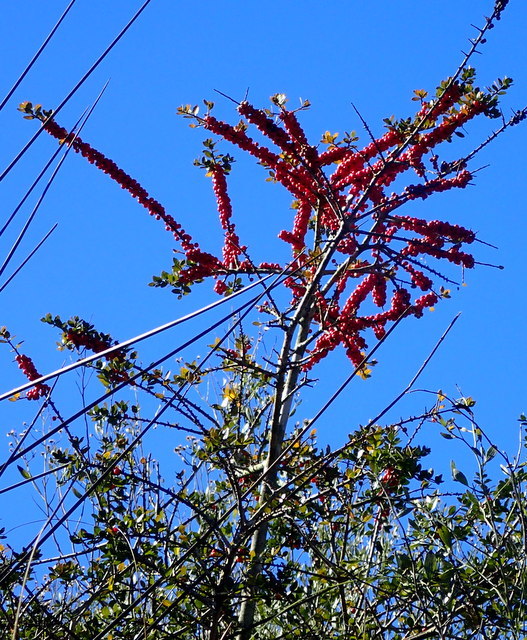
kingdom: Plantae
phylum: Tracheophyta
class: Magnoliopsida
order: Aquifoliales
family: Aquifoliaceae
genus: Ilex
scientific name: Ilex vomitoria
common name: Yaupon holly
